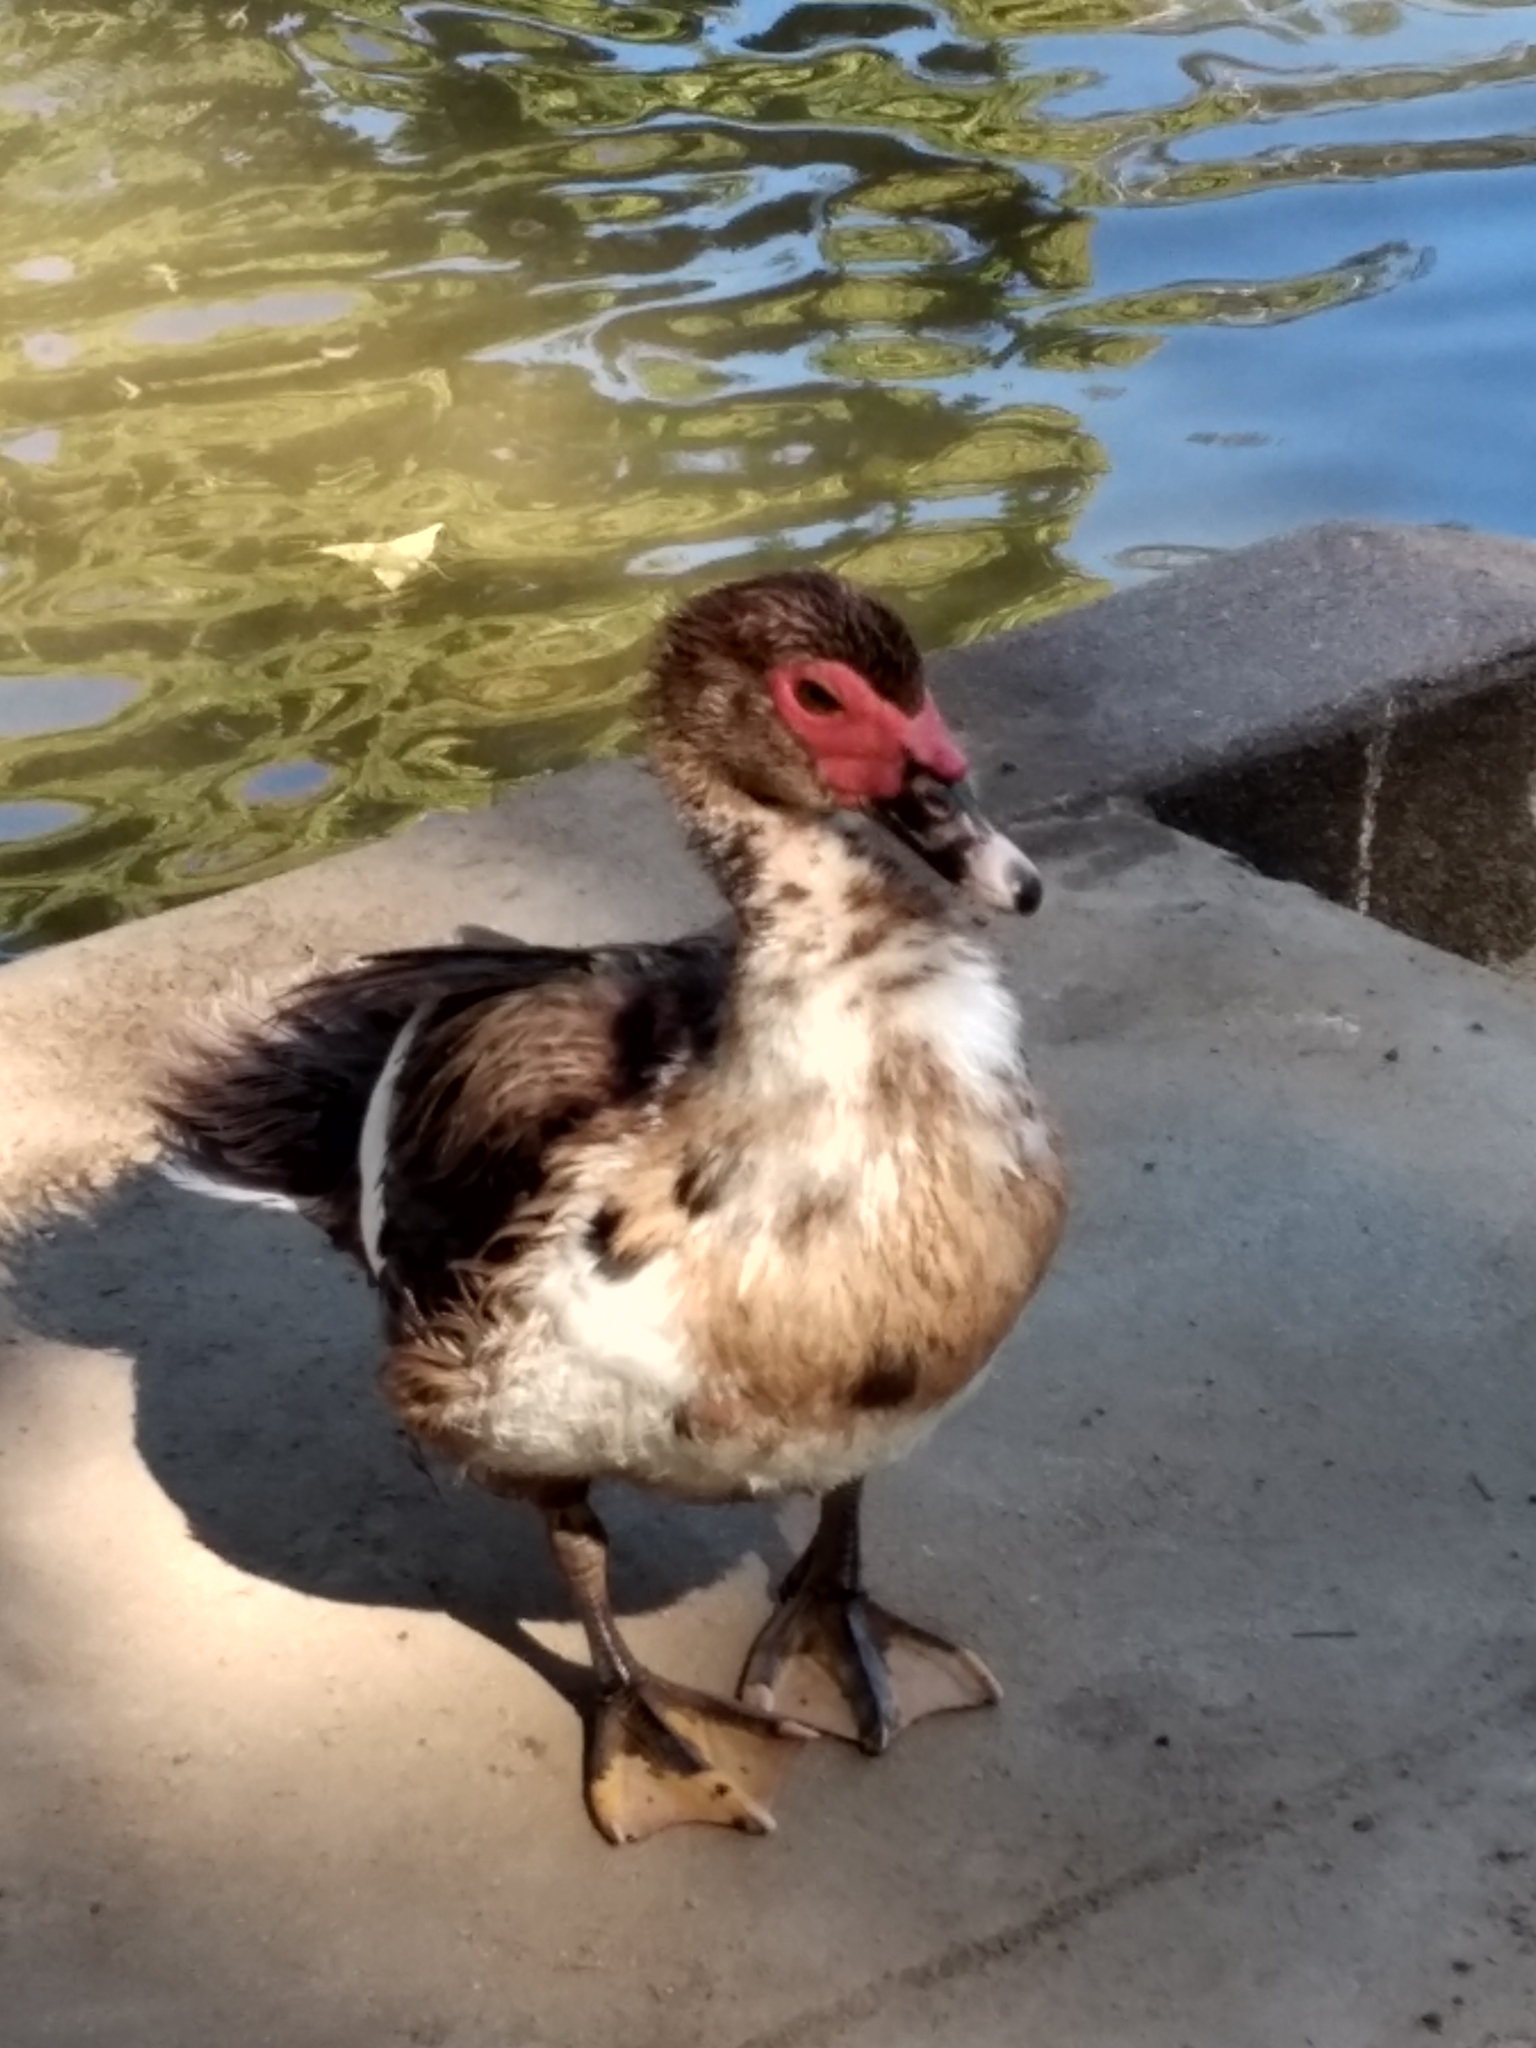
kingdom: Animalia
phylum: Chordata
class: Aves
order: Anseriformes
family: Anatidae
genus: Cairina
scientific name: Cairina moschata
